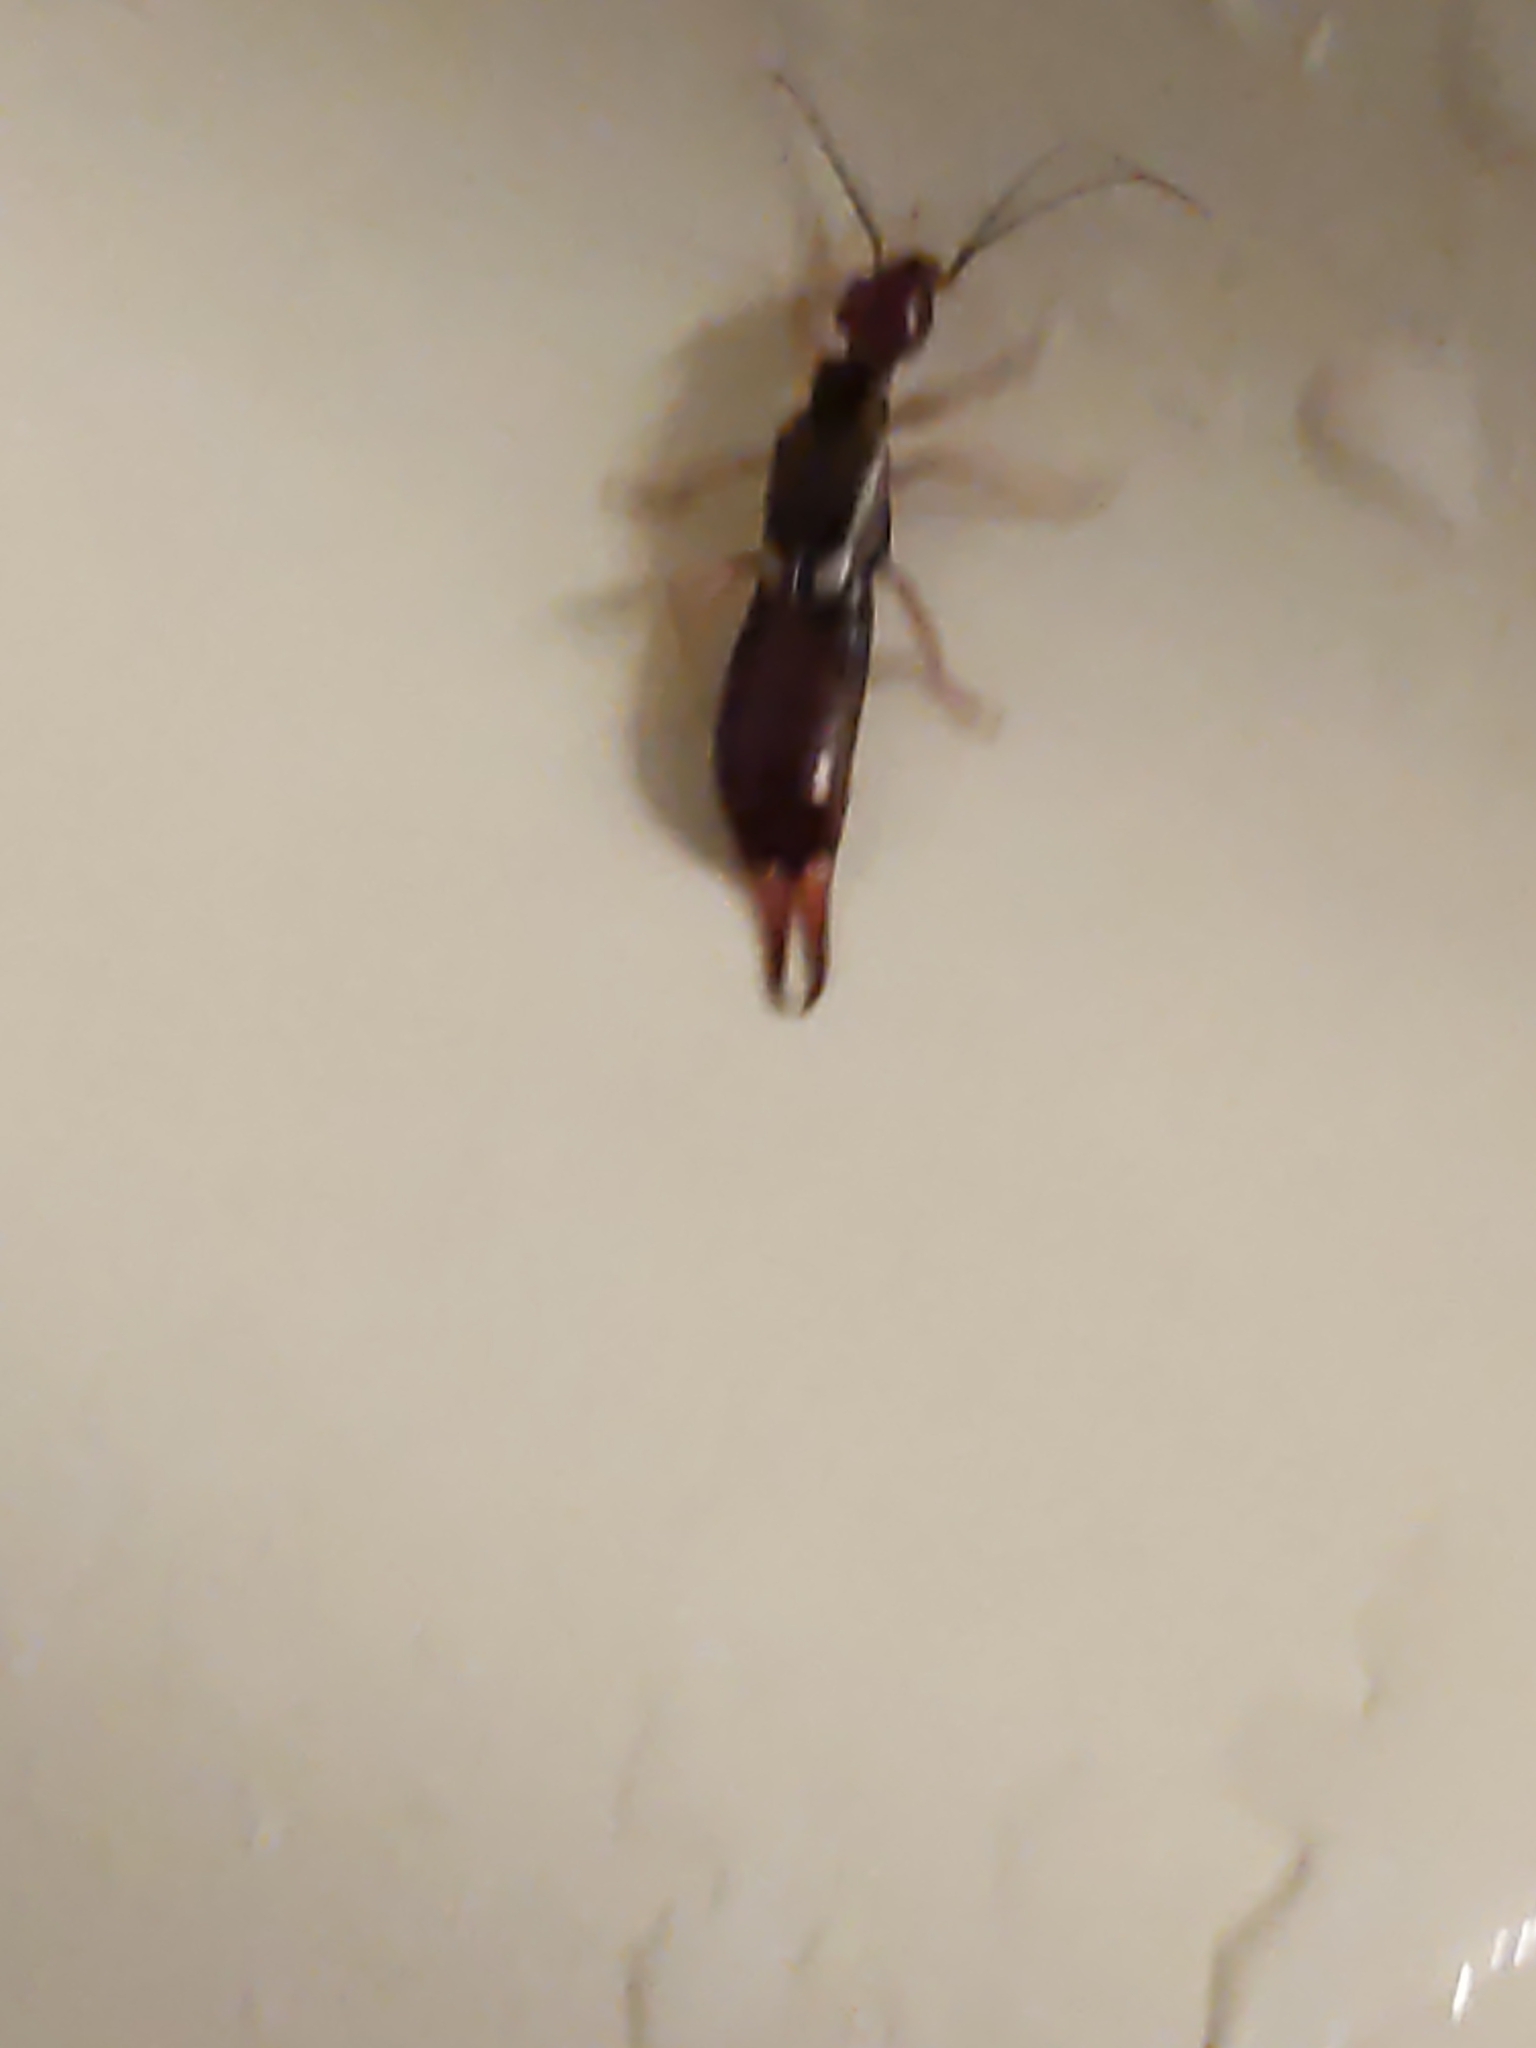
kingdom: Animalia
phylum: Arthropoda
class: Insecta
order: Dermaptera
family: Forficulidae
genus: Forficula
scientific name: Forficula
